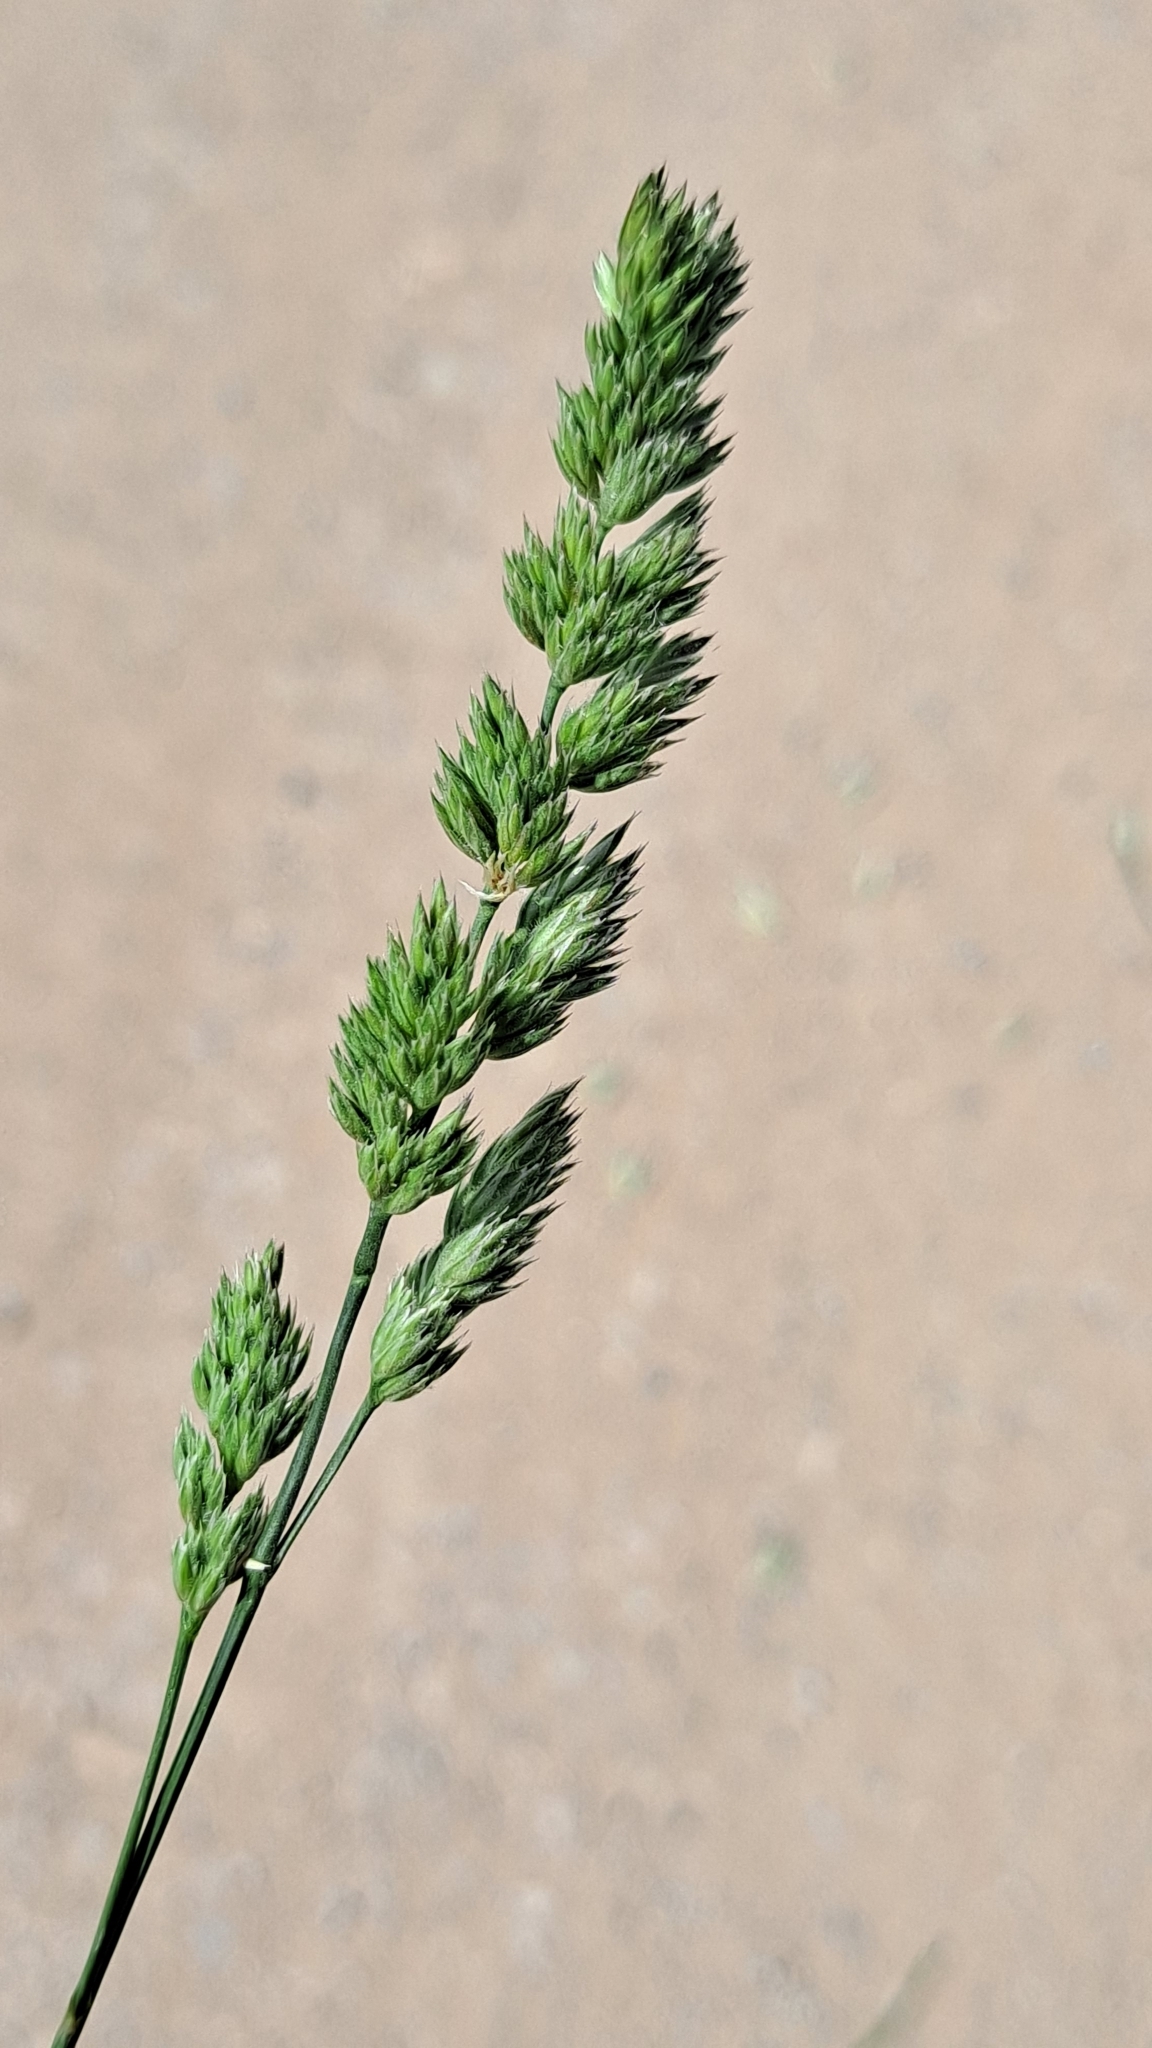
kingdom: Plantae
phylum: Tracheophyta
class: Liliopsida
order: Poales
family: Poaceae
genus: Dactylis
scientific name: Dactylis glomerata
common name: Orchardgrass
